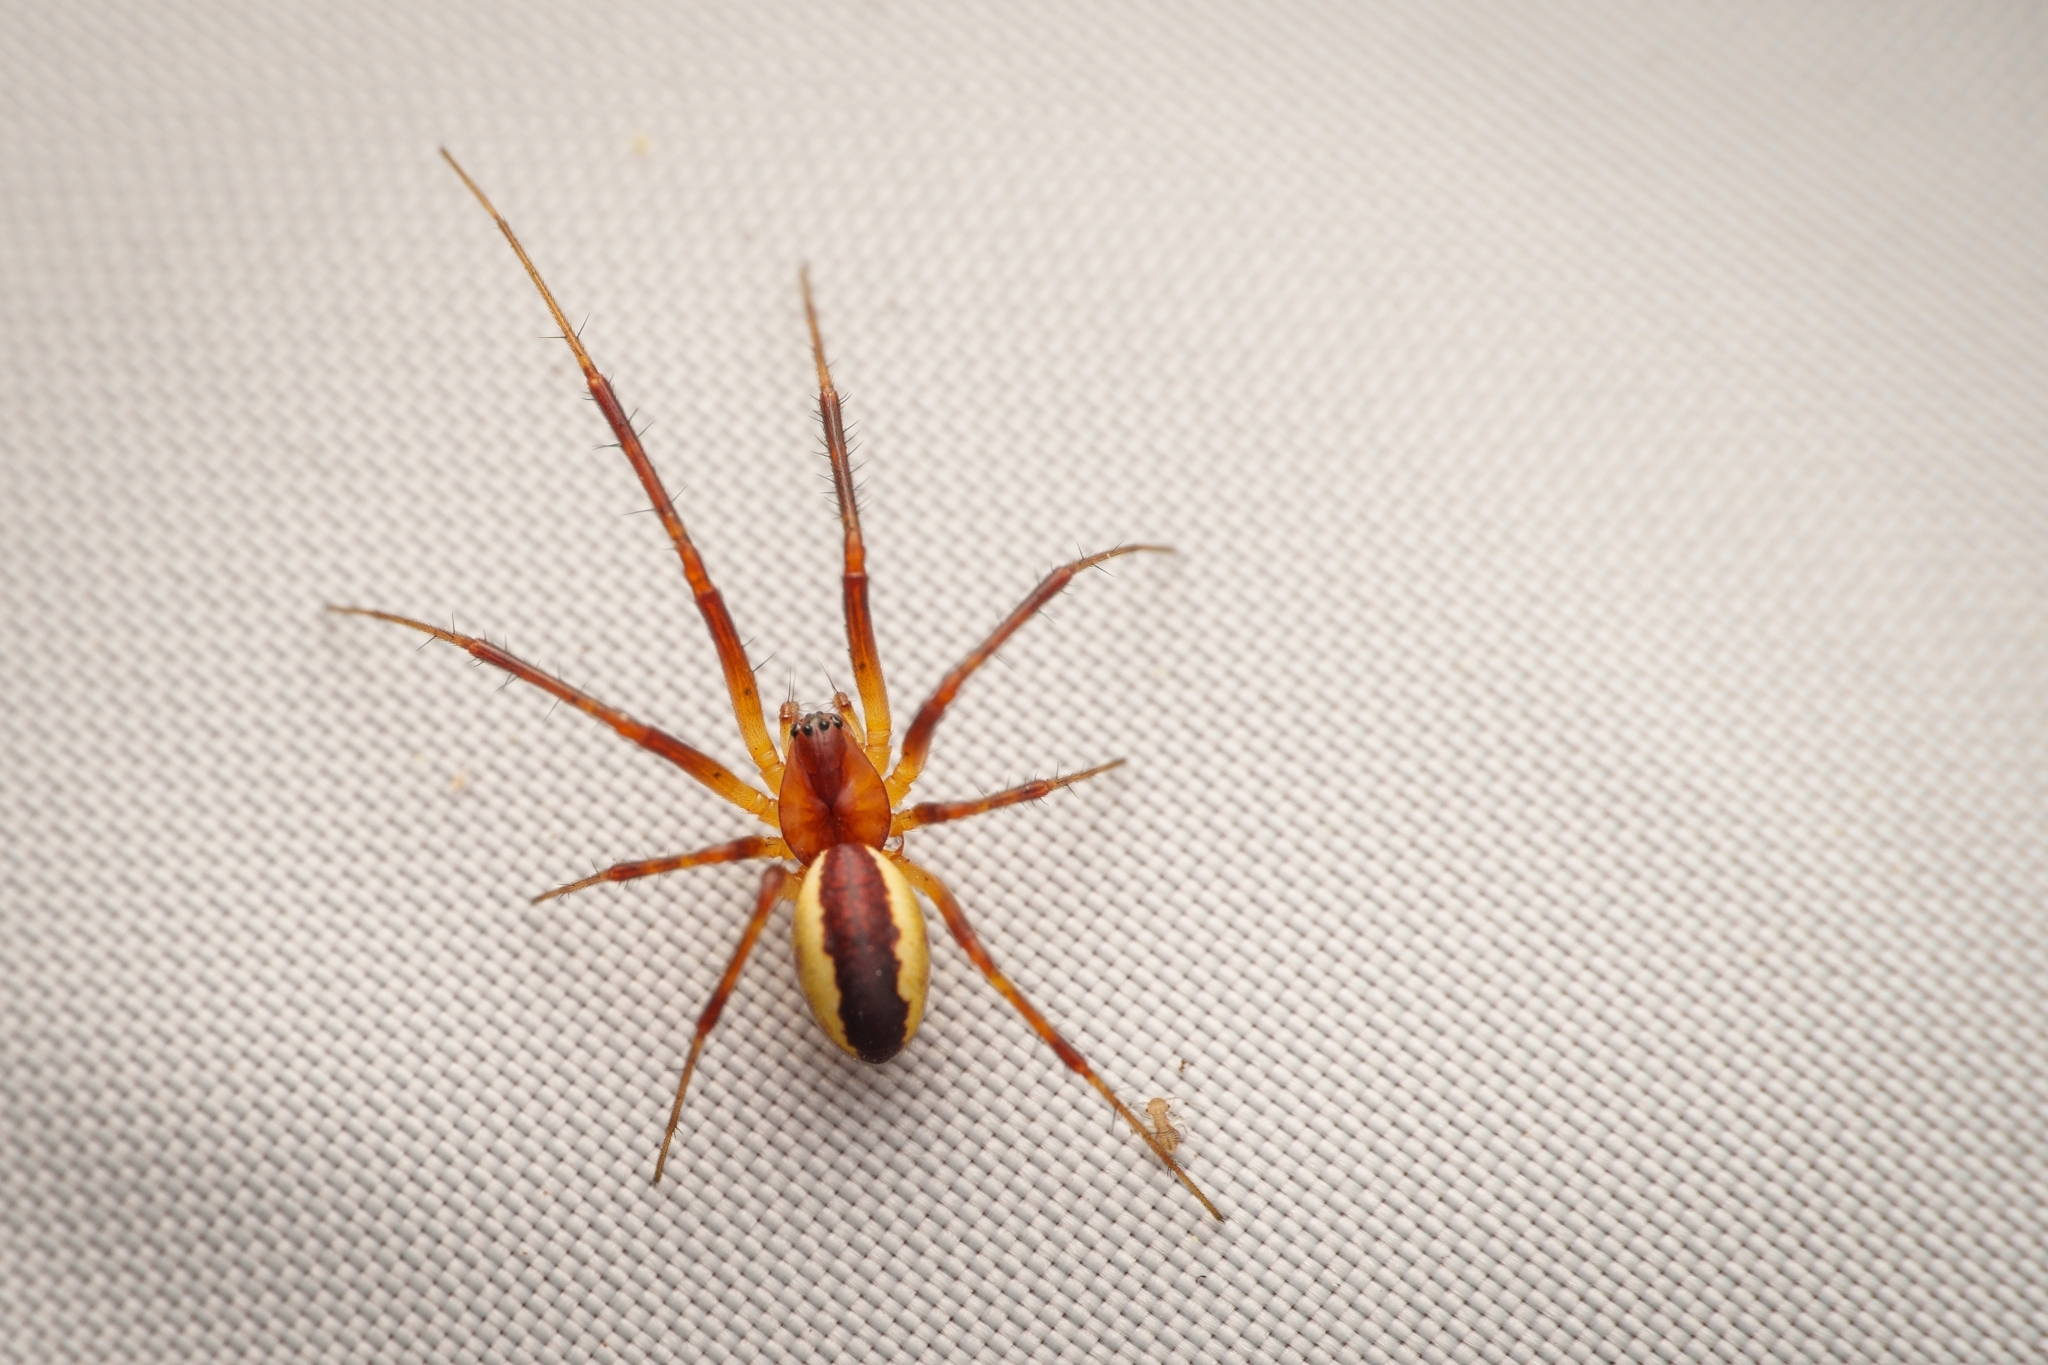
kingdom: Animalia
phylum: Arthropoda
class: Arachnida
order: Araneae
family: Linyphiidae
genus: Pityohyphantes
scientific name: Pityohyphantes rubrofasciatus
